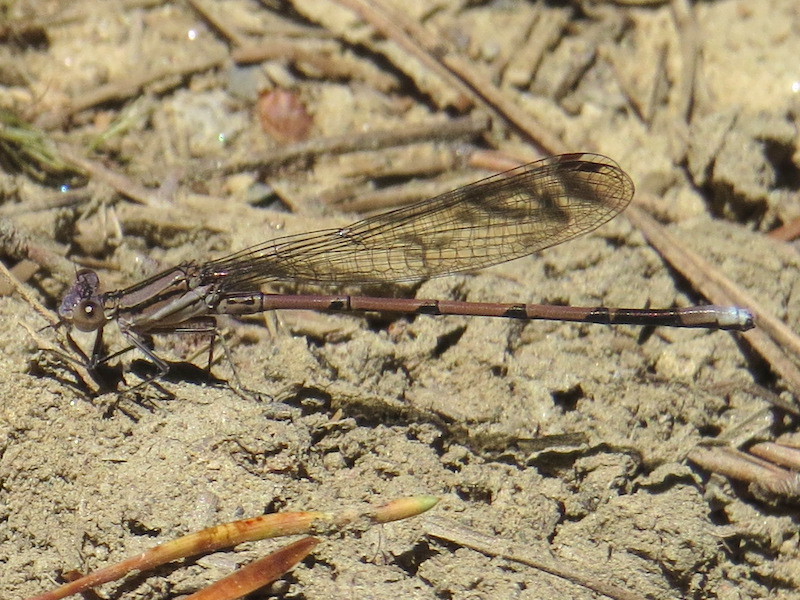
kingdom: Animalia
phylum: Arthropoda
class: Insecta
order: Odonata
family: Coenagrionidae
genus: Argia
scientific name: Argia fumipennis
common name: Variable dancer
